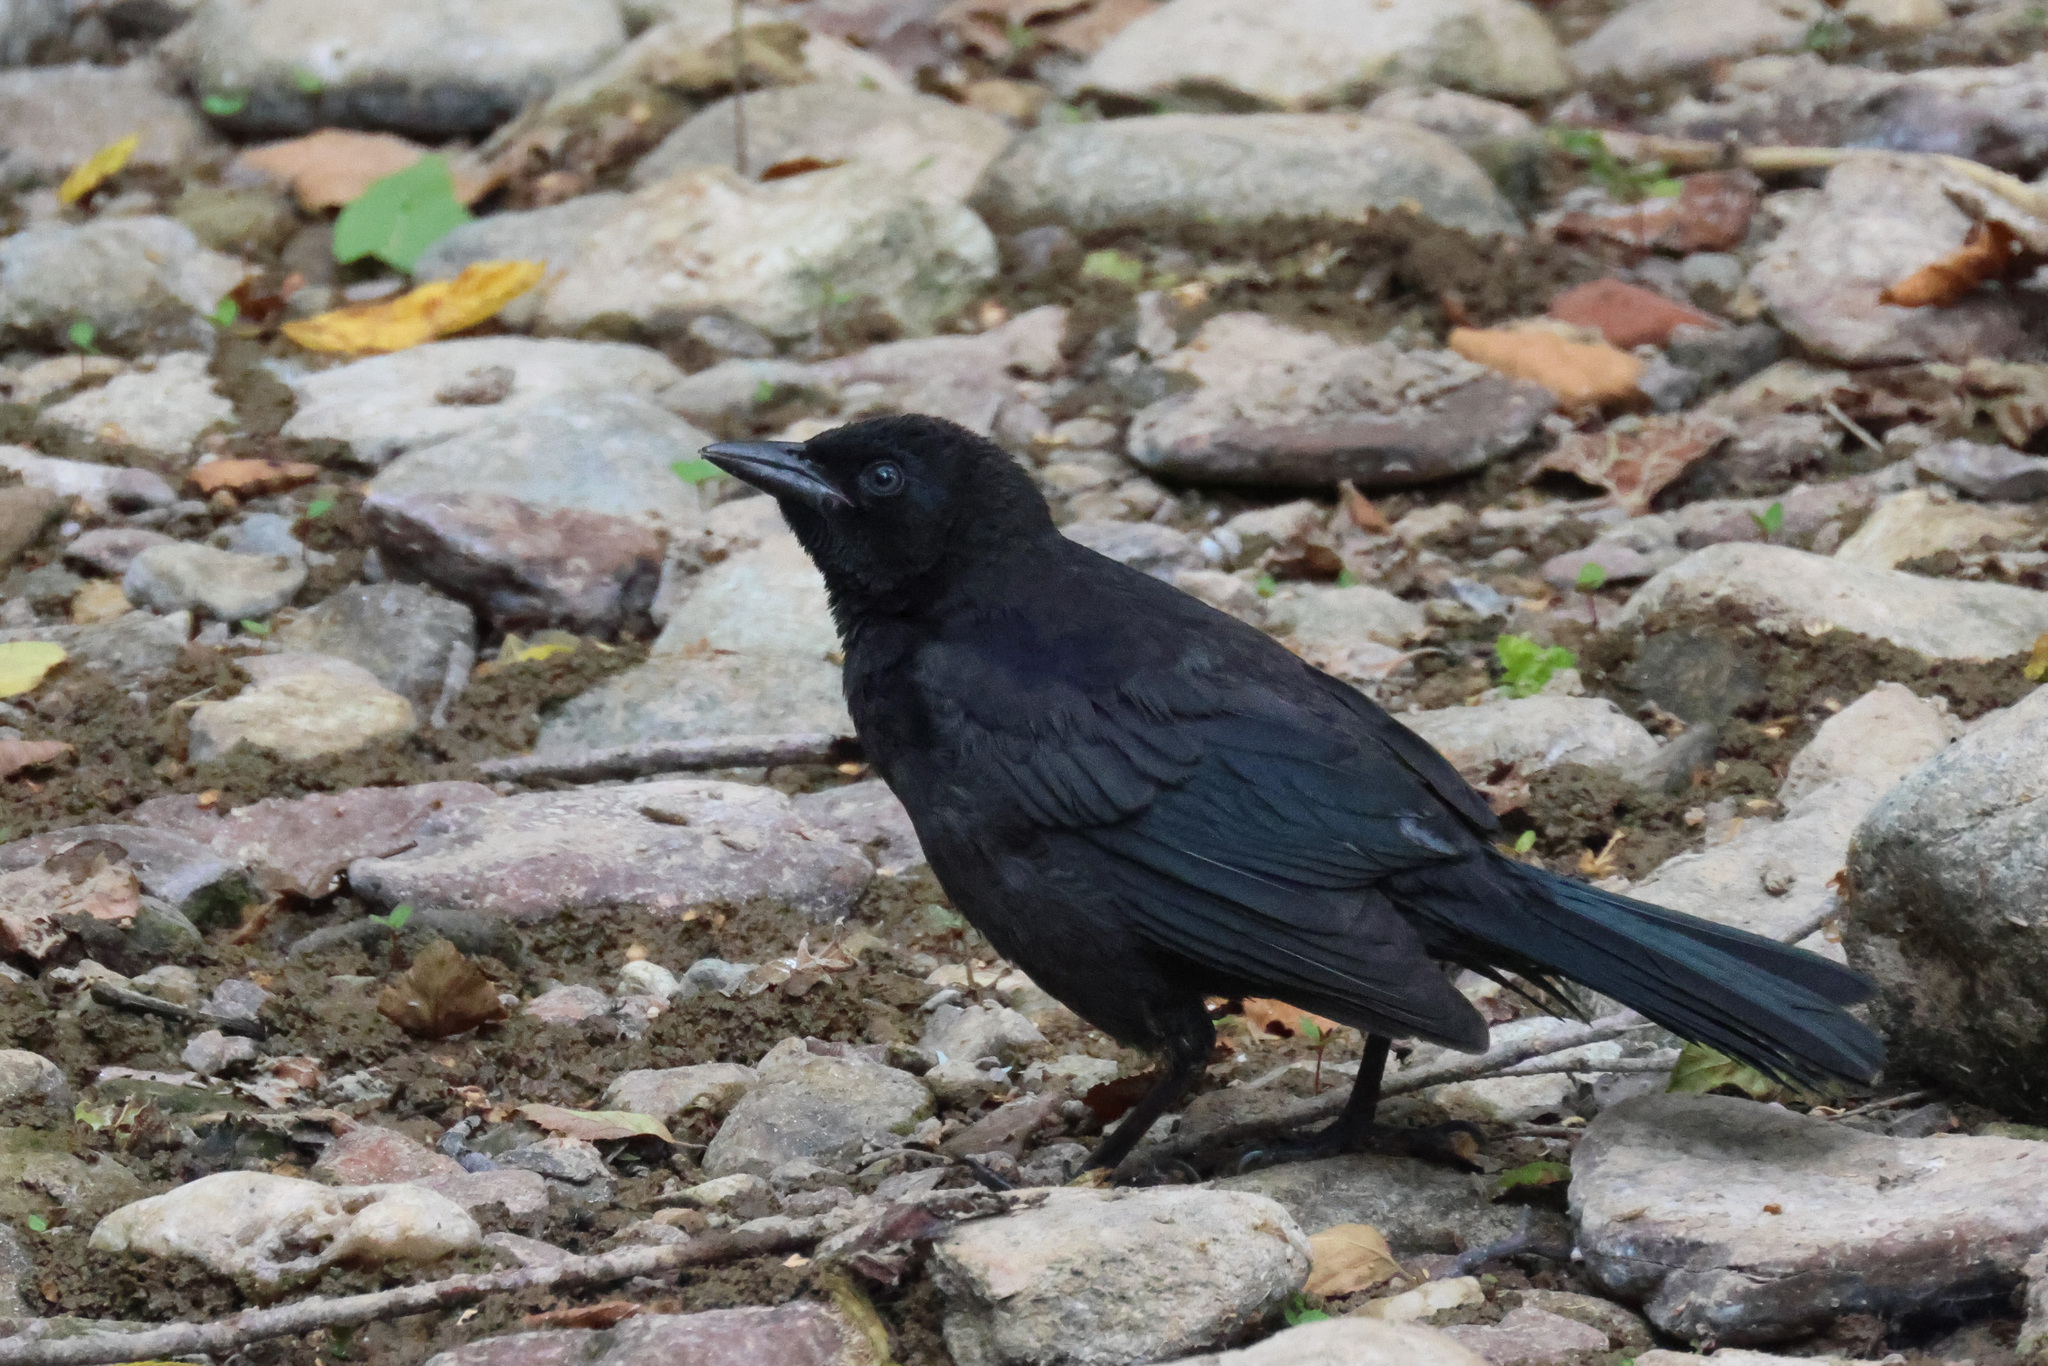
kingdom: Animalia
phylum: Chordata
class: Aves
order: Passeriformes
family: Icteridae
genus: Quiscalus
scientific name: Quiscalus quiscula
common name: Common grackle
